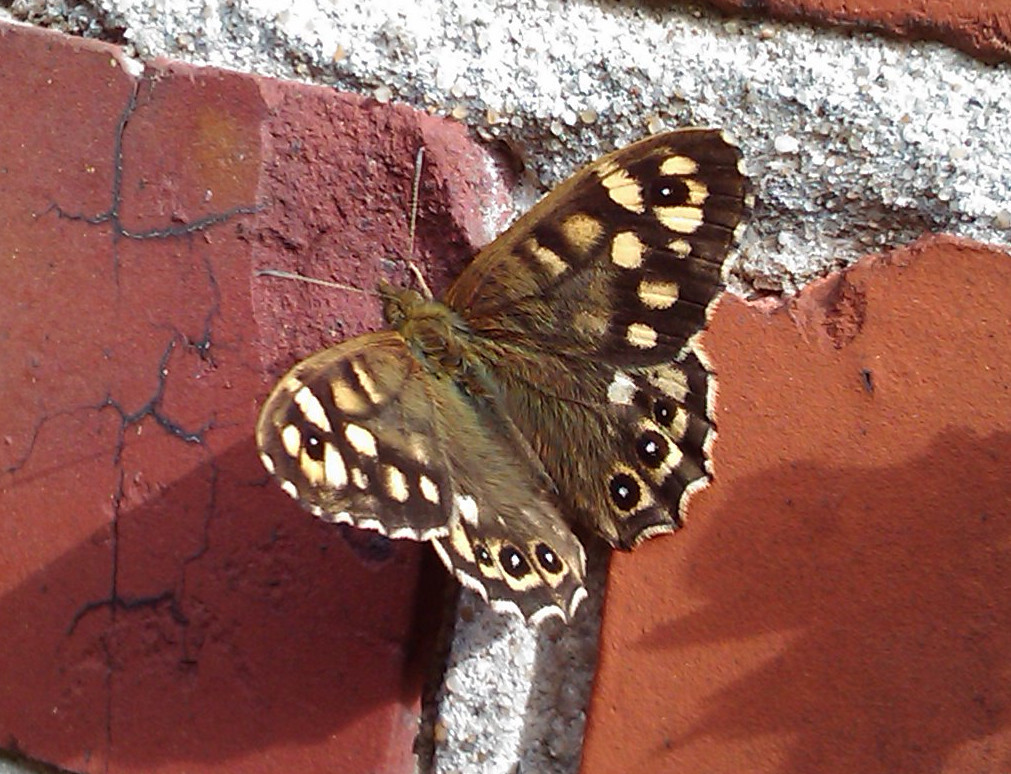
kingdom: Animalia
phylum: Arthropoda
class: Insecta
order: Lepidoptera
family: Nymphalidae
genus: Pararge
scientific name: Pararge aegeria
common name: Speckled wood
